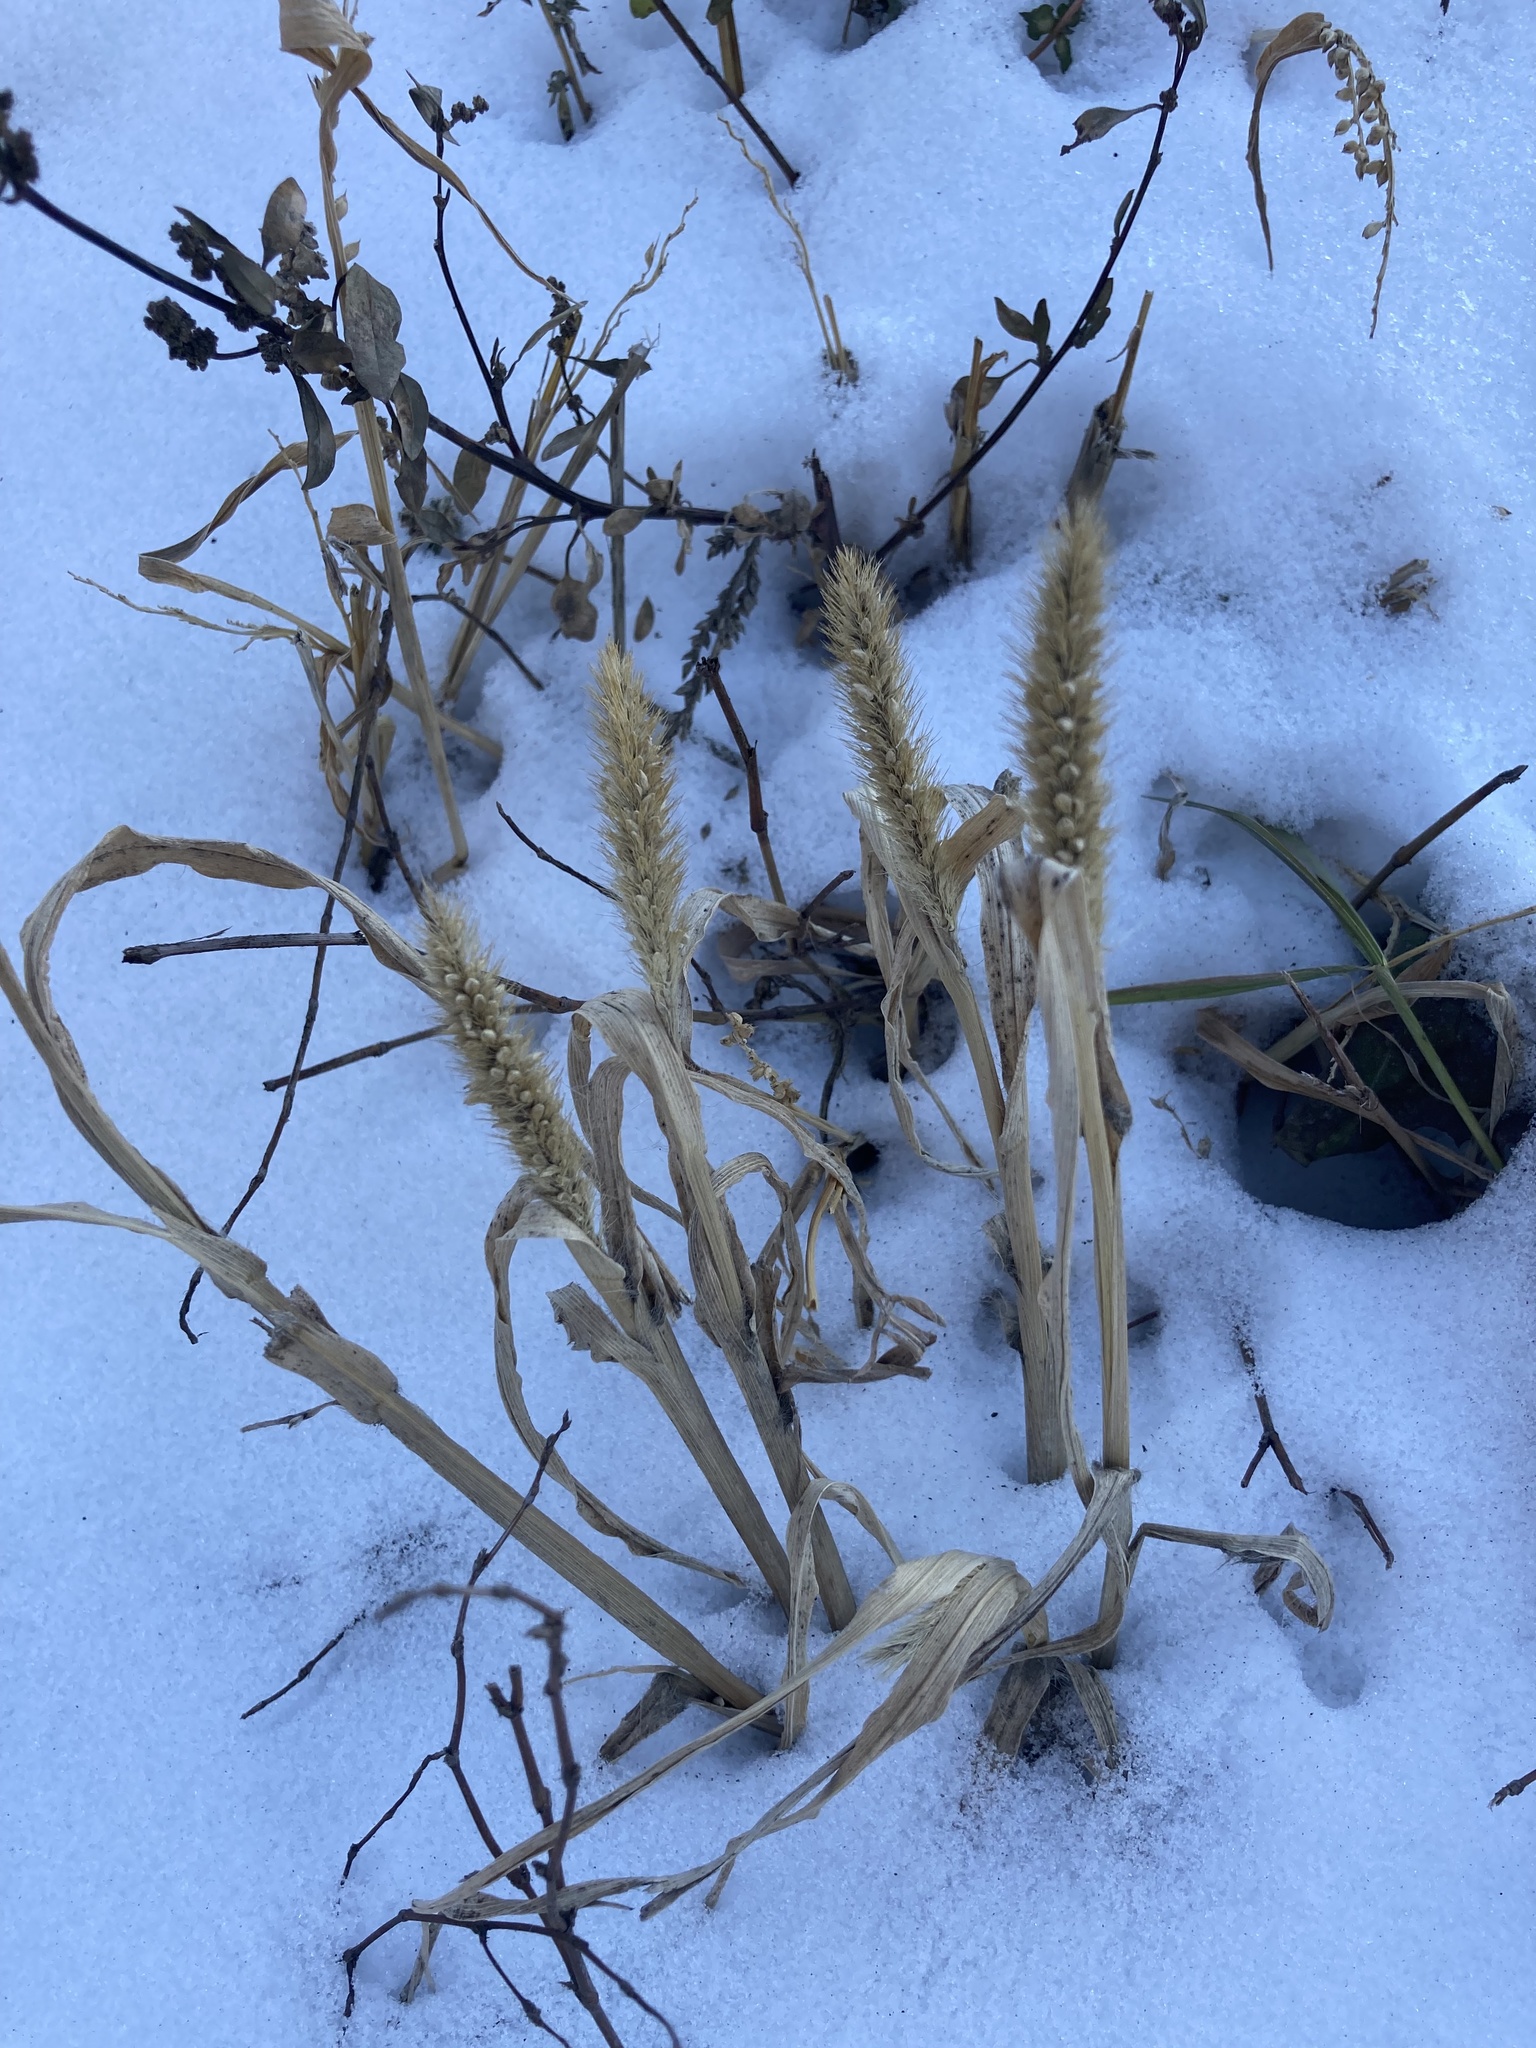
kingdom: Plantae
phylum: Tracheophyta
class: Liliopsida
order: Poales
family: Poaceae
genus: Setaria
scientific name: Setaria viridis
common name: Green bristlegrass
